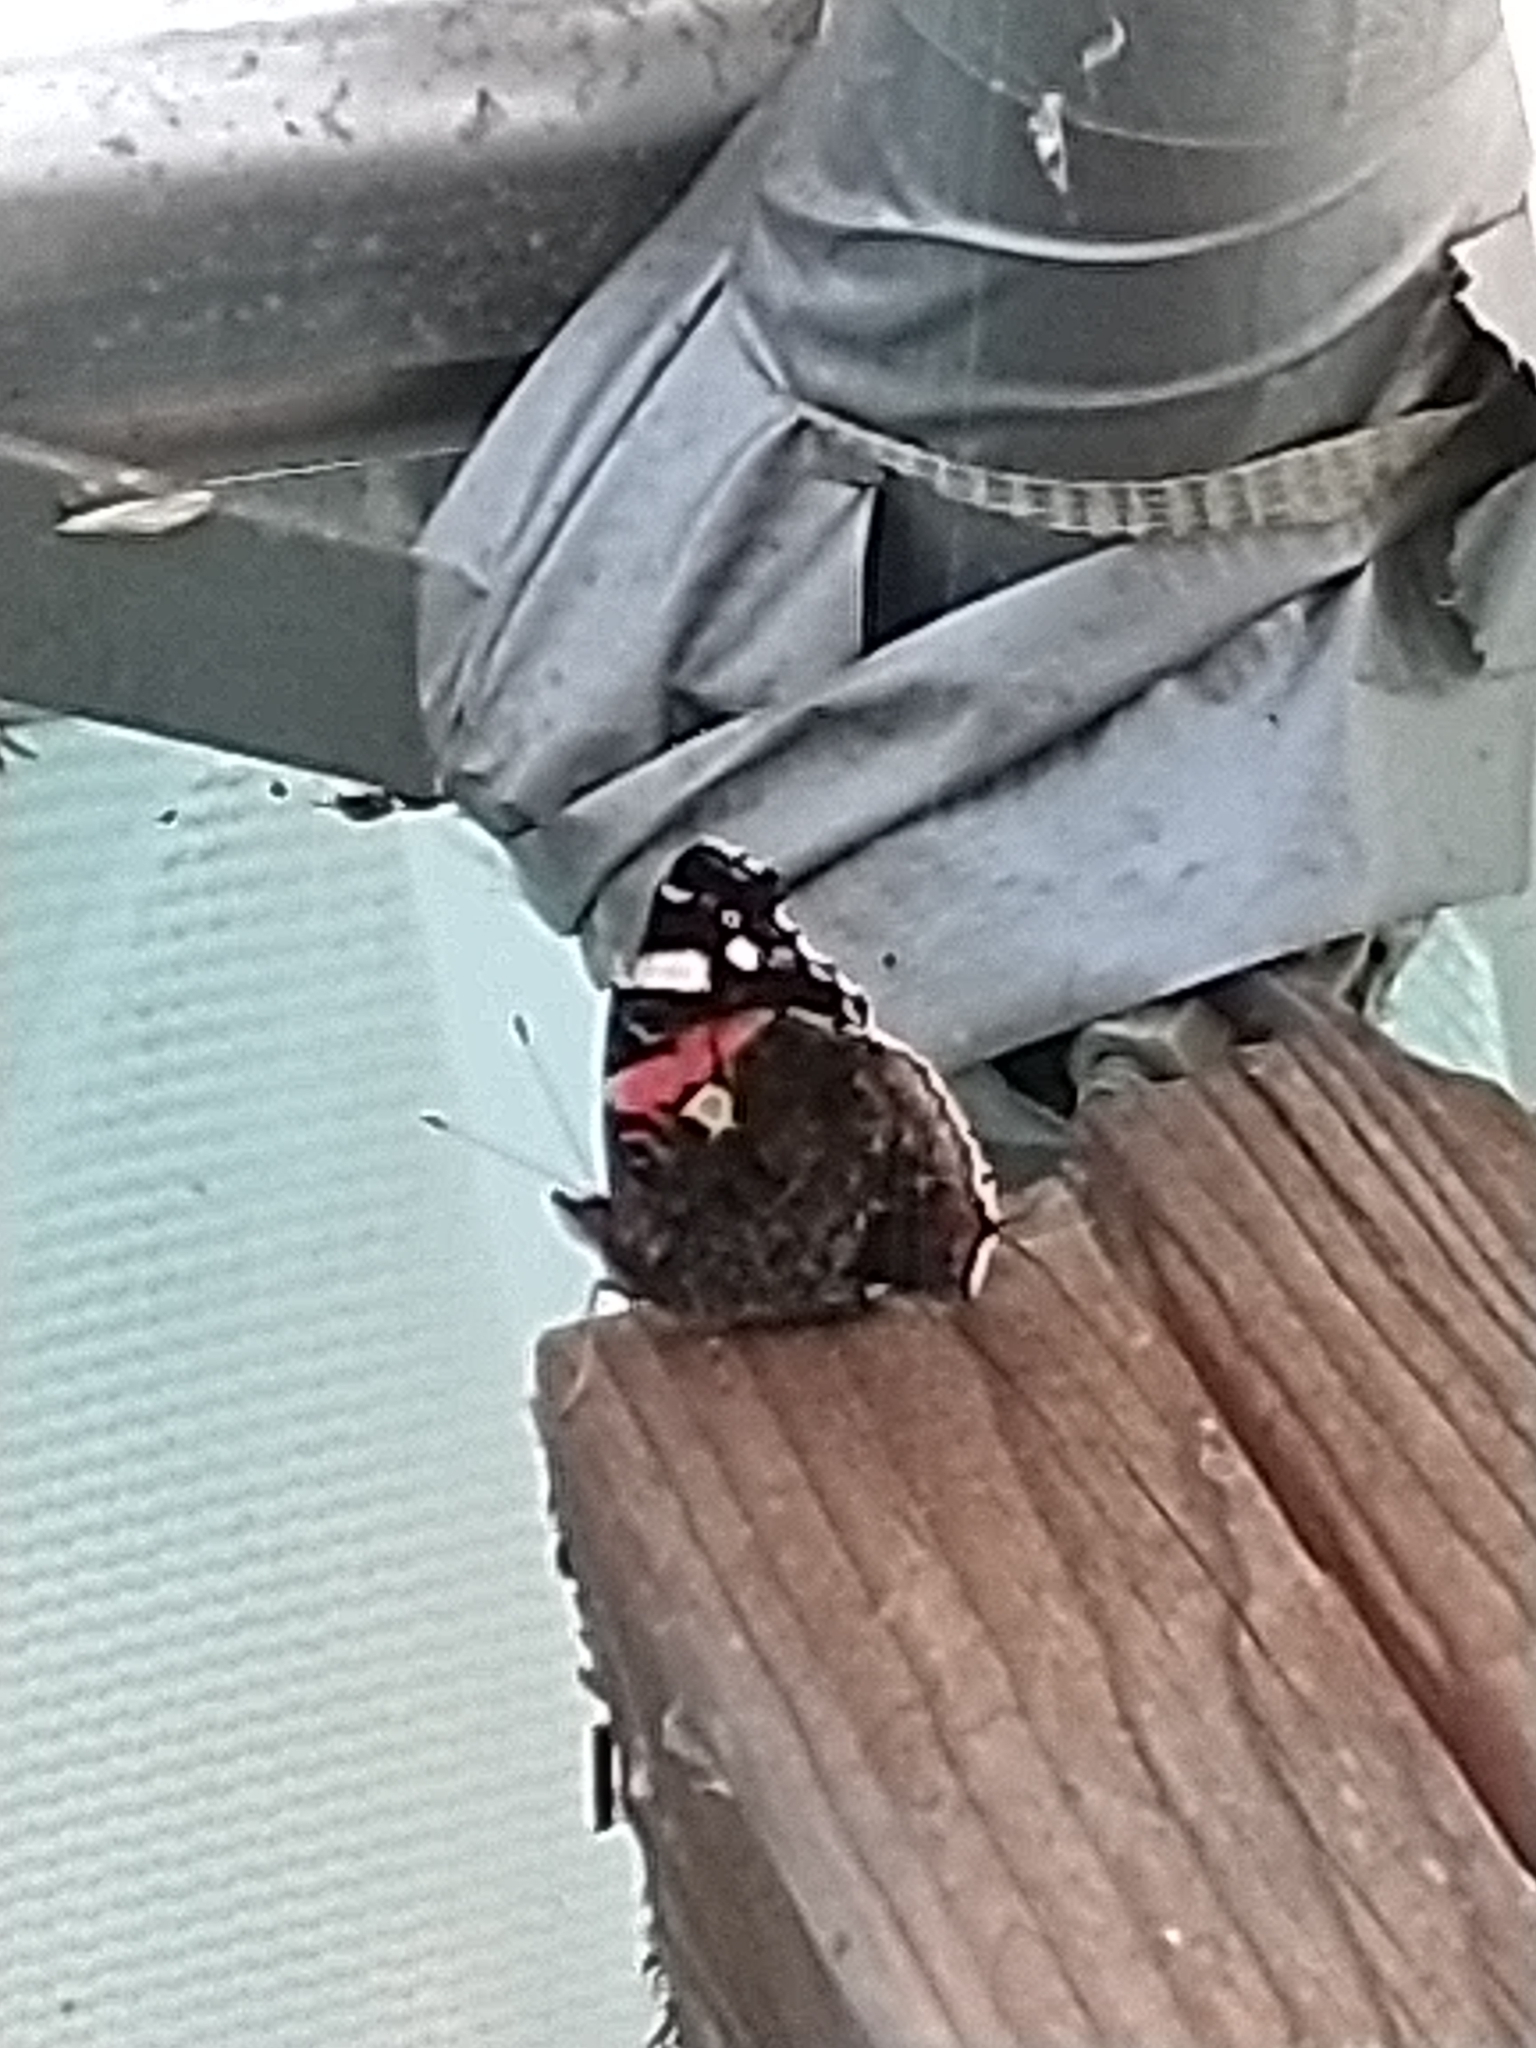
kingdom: Animalia
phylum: Arthropoda
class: Insecta
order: Lepidoptera
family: Nymphalidae
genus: Vanessa
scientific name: Vanessa atalanta
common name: Red admiral
